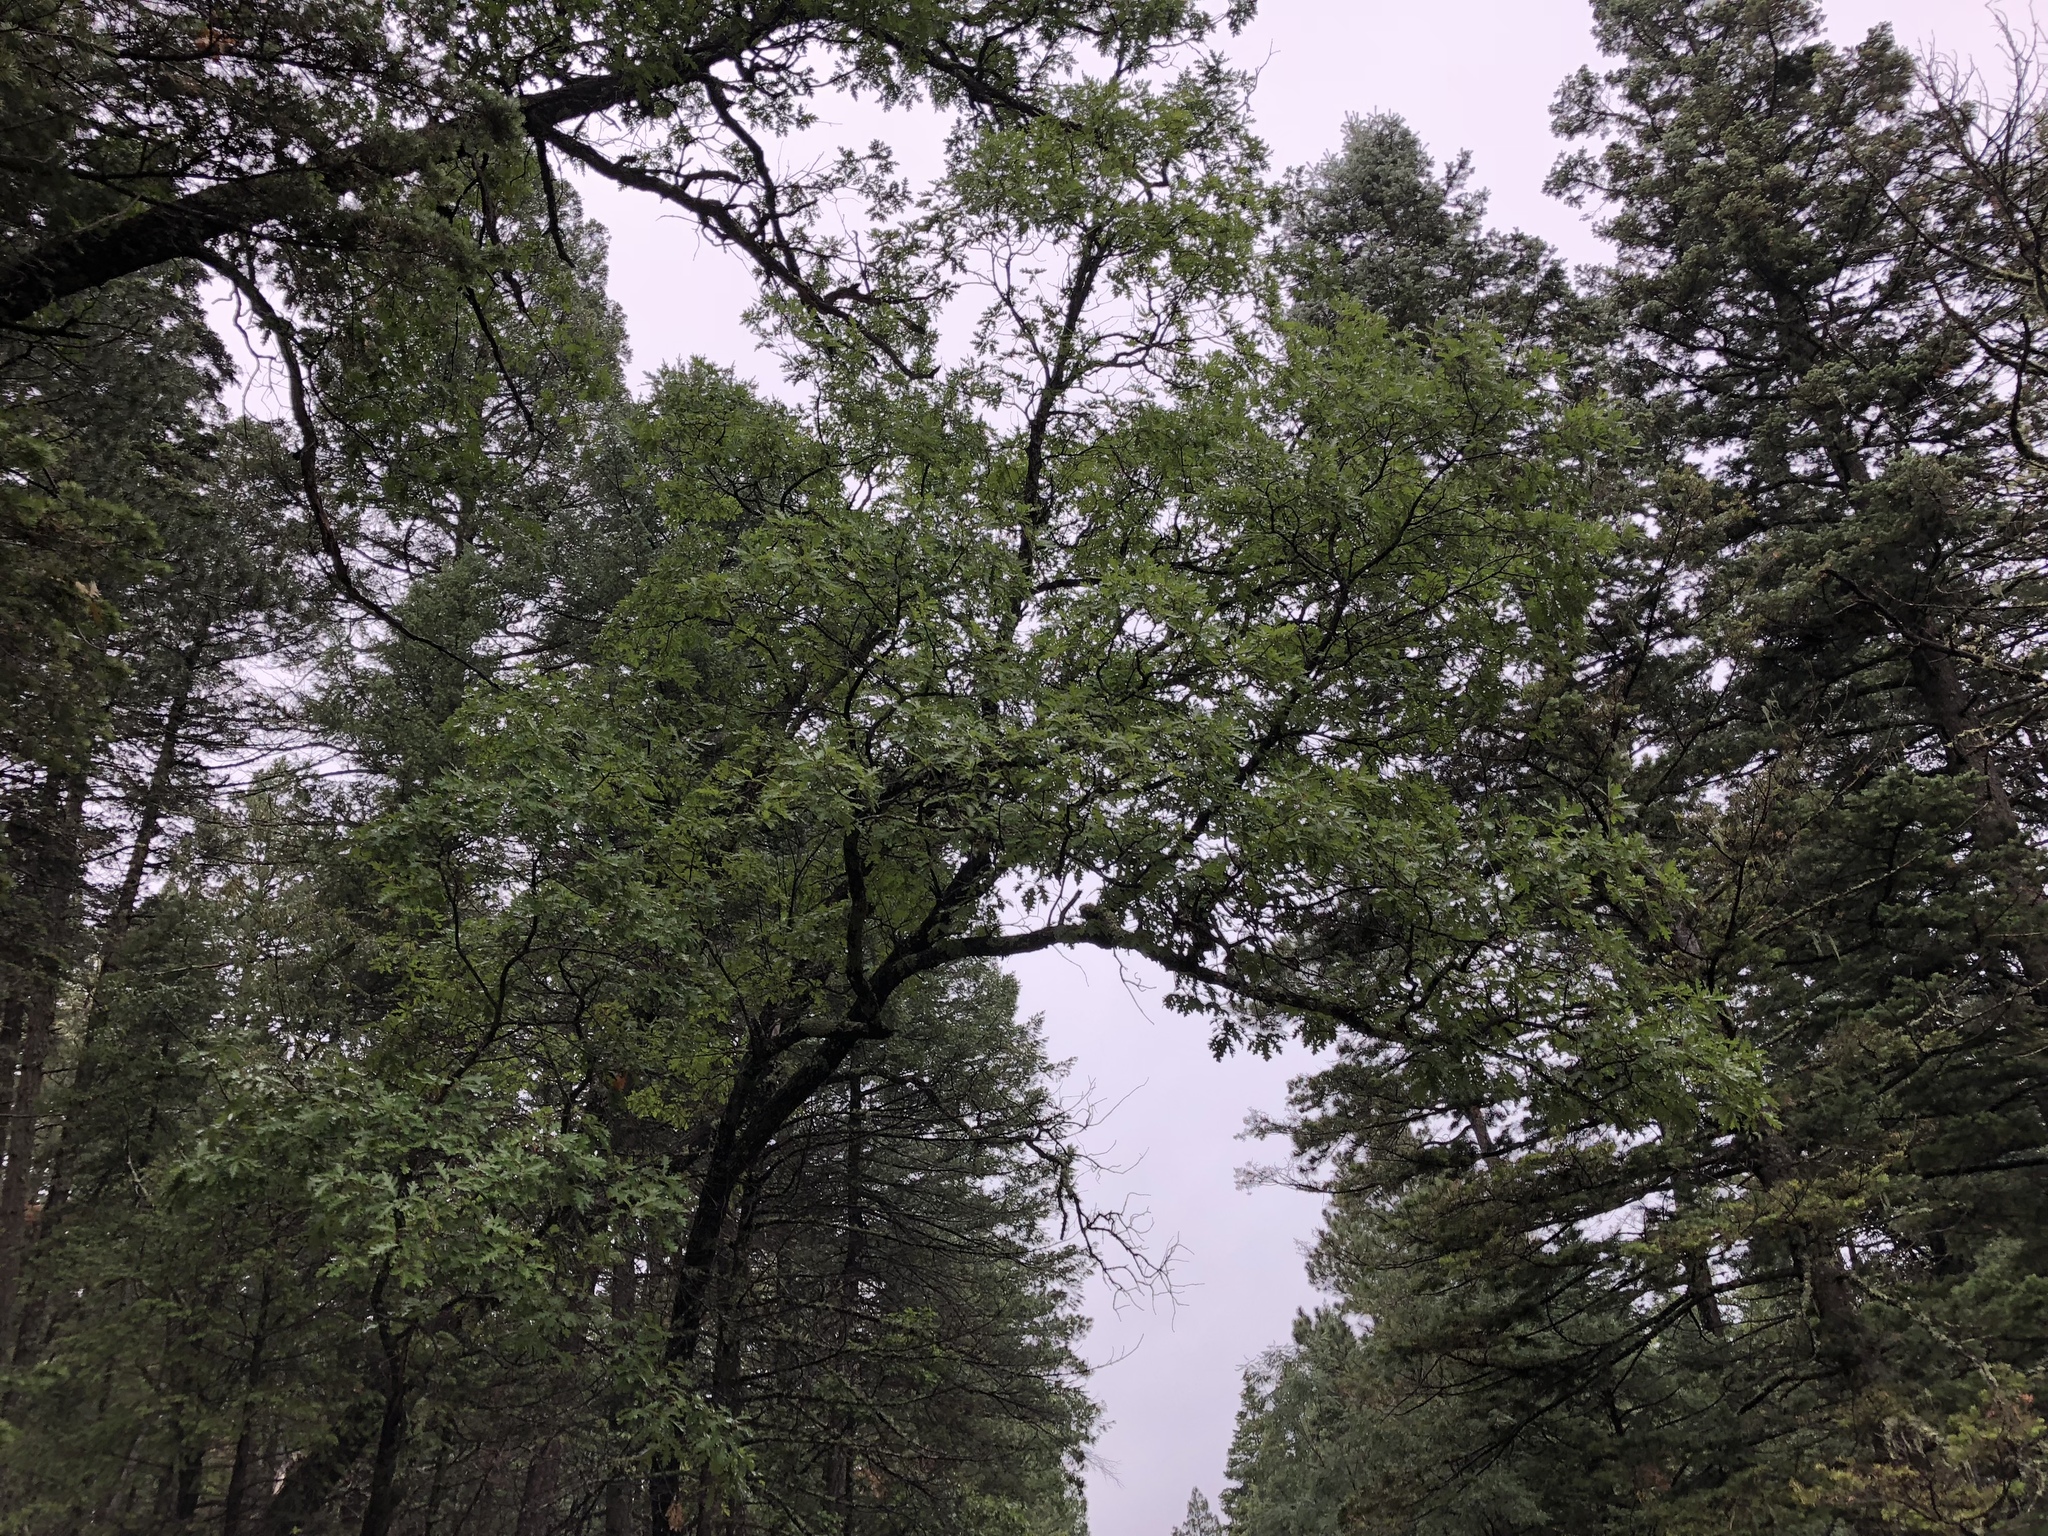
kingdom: Plantae
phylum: Tracheophyta
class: Magnoliopsida
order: Fagales
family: Fagaceae
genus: Quercus
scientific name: Quercus gambelii
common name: Gambel oak
